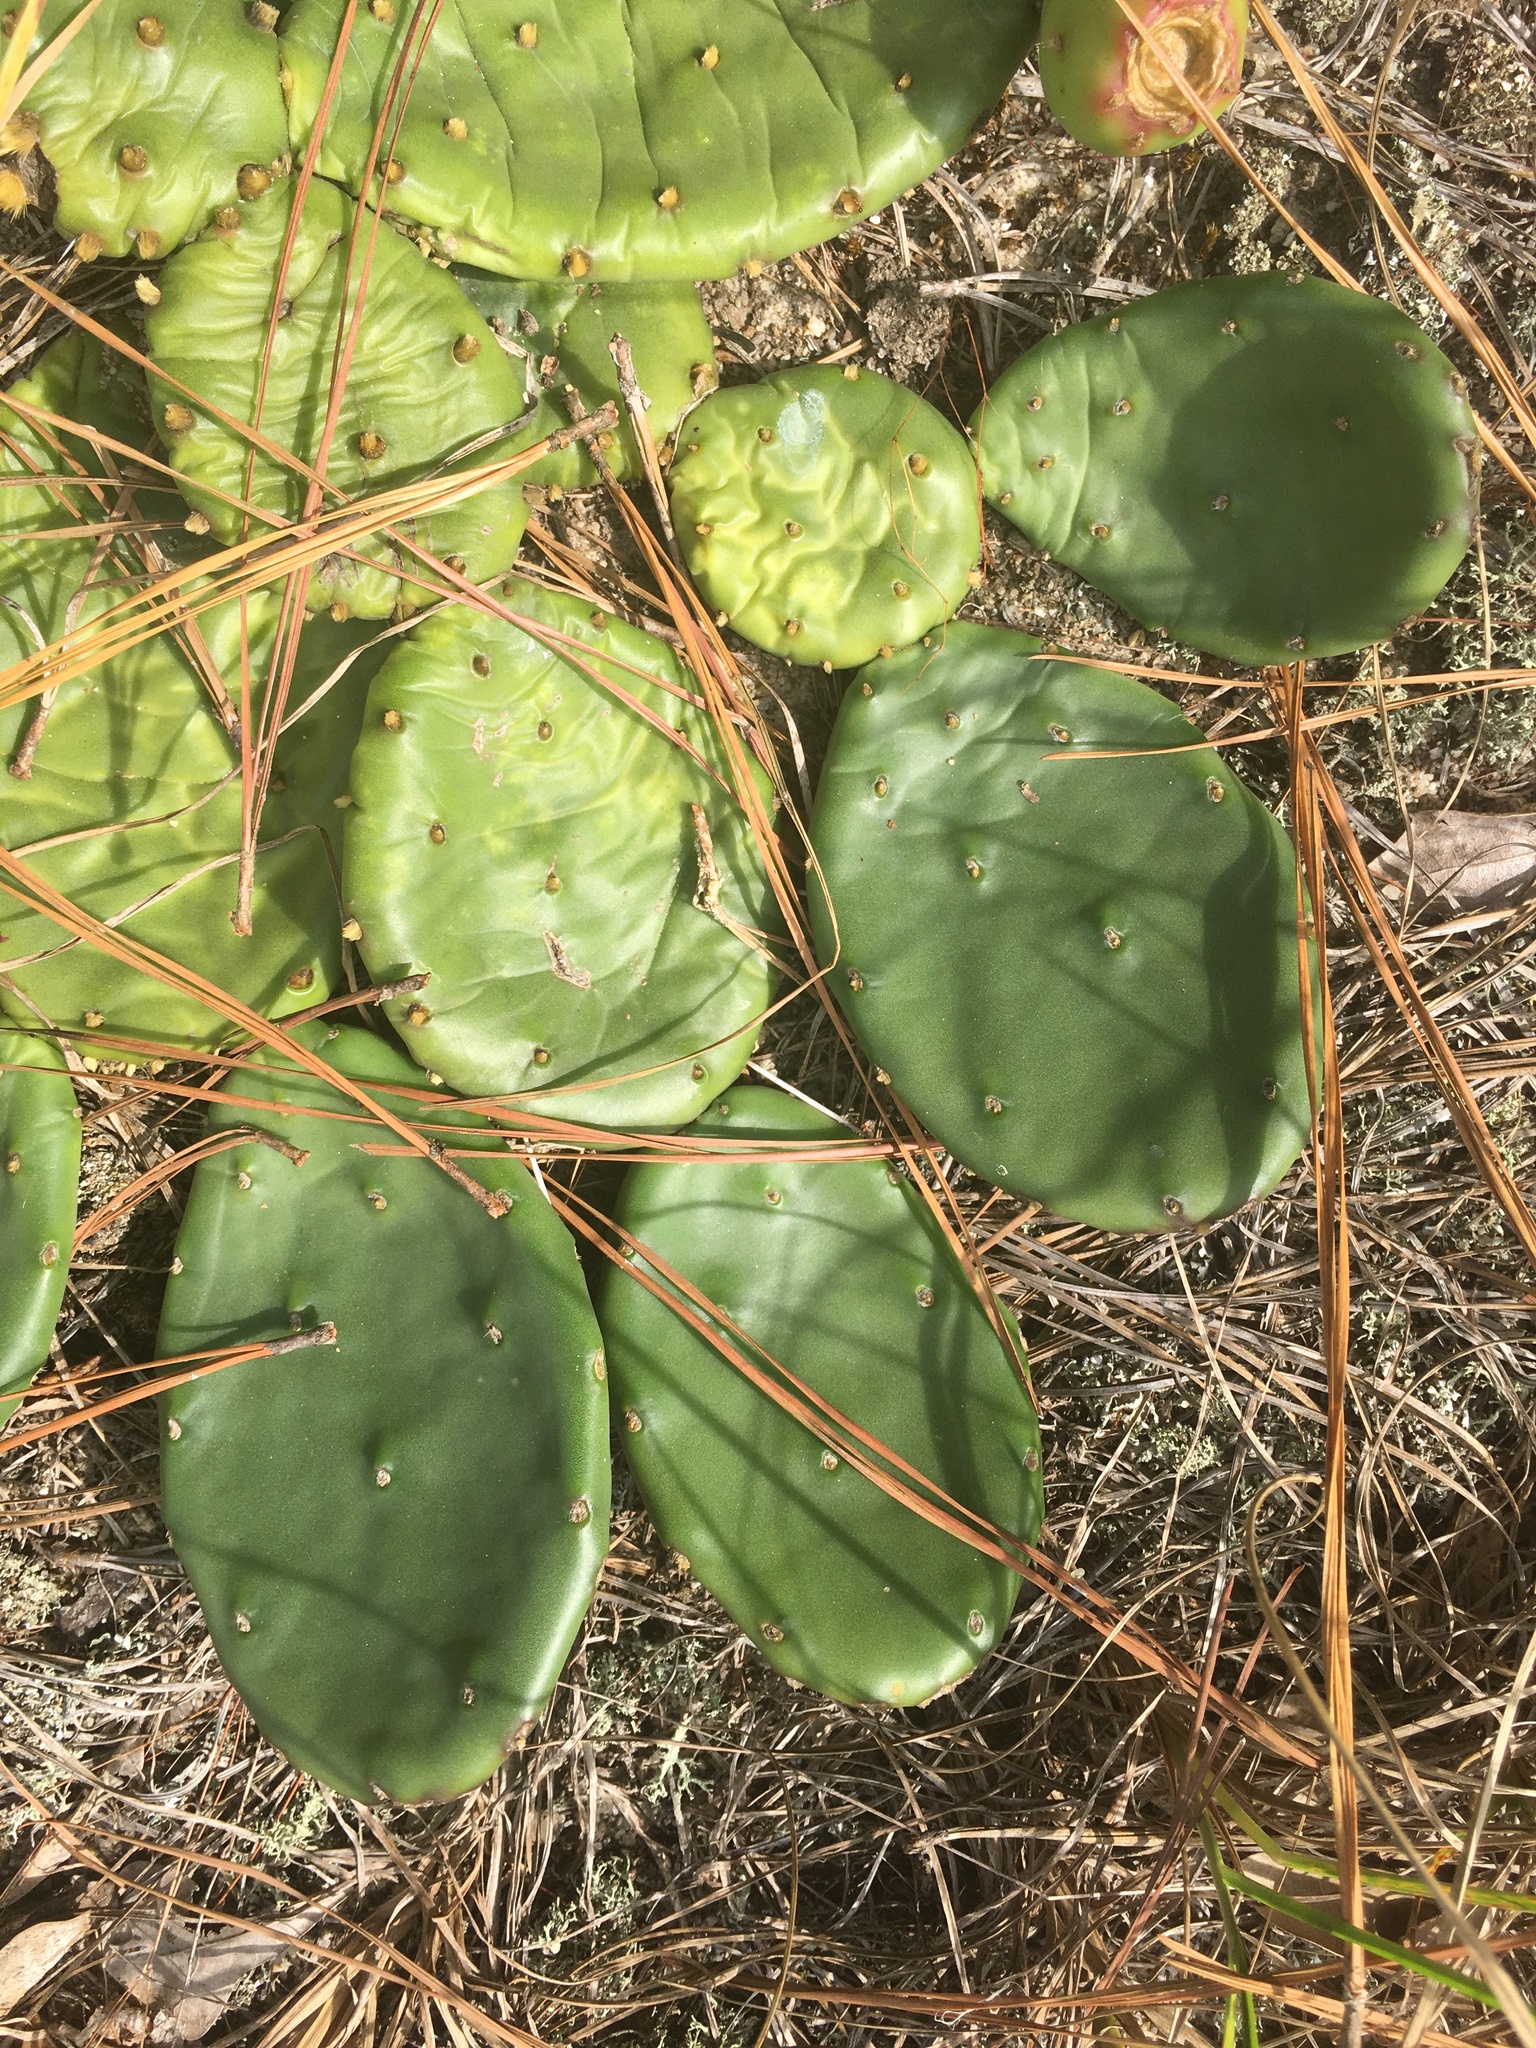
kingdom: Plantae
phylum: Tracheophyta
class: Magnoliopsida
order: Caryophyllales
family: Cactaceae
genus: Opuntia
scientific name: Opuntia mesacantha
